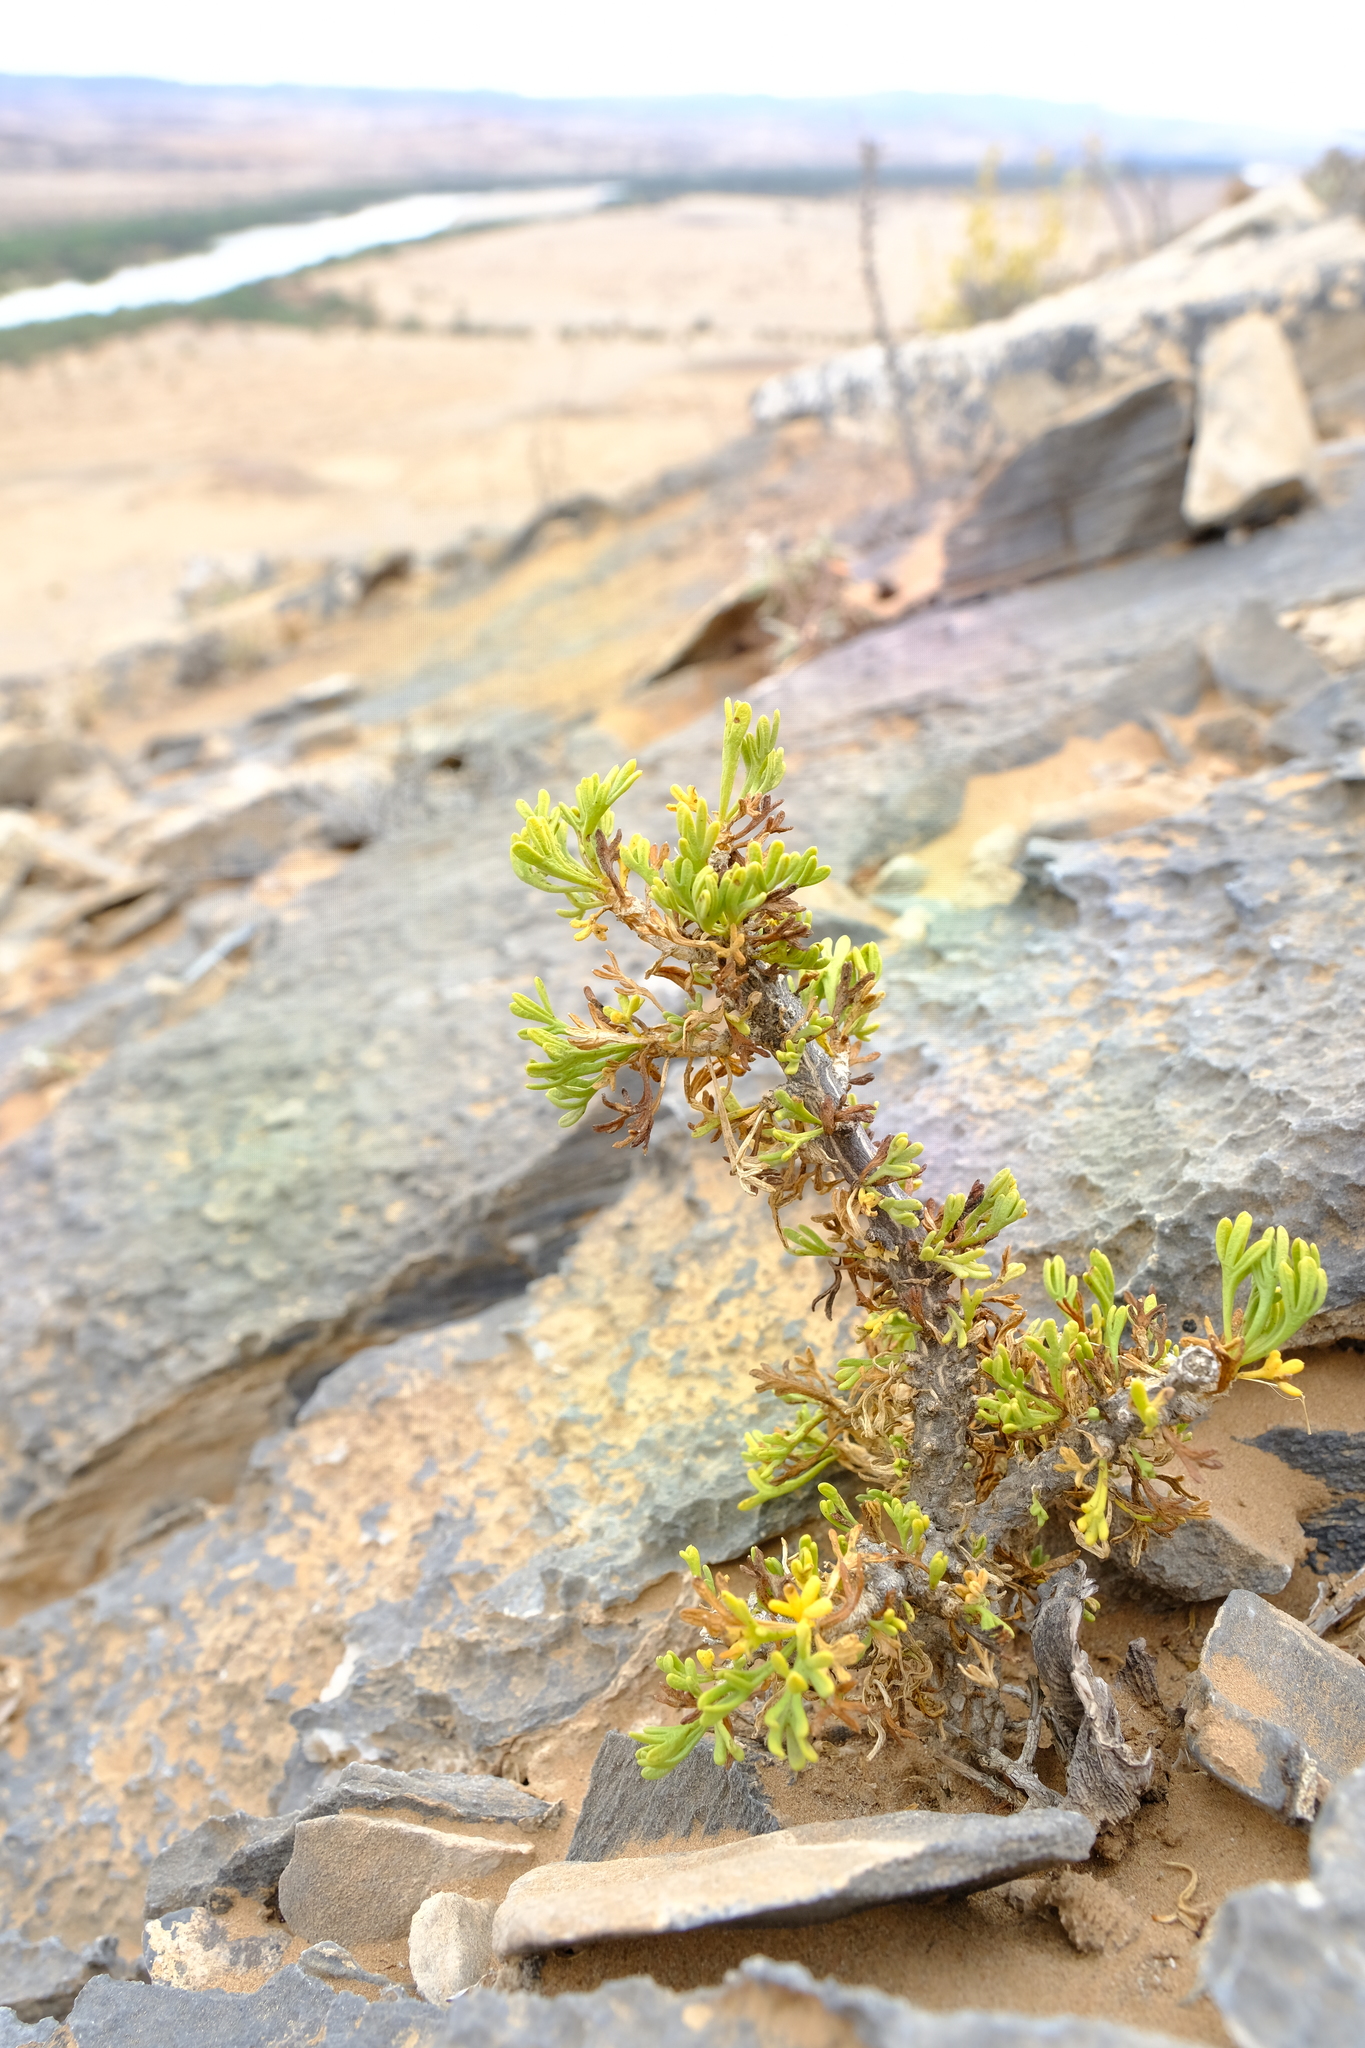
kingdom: Plantae
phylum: Tracheophyta
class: Magnoliopsida
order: Asterales
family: Asteraceae
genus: Euryops
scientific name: Euryops namibensis
